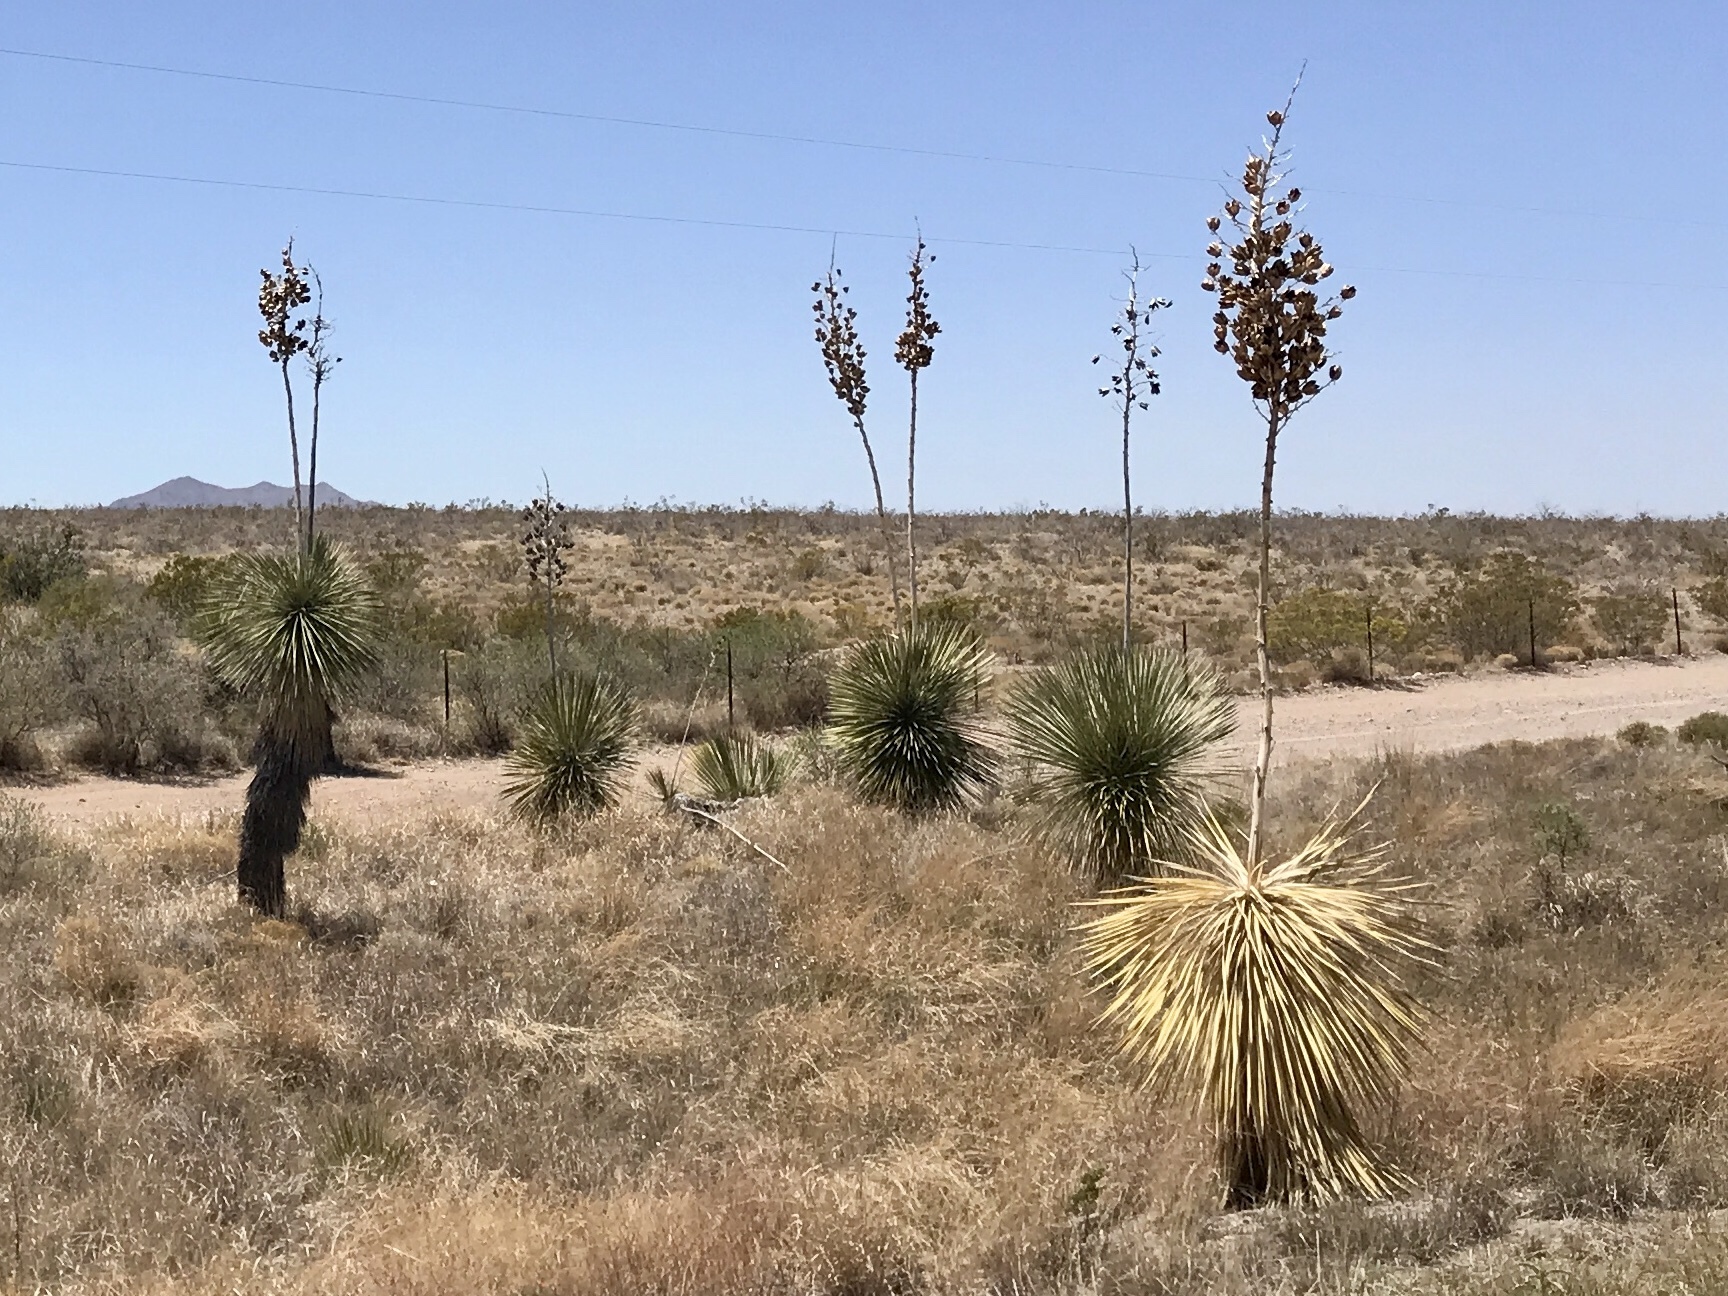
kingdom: Plantae
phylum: Tracheophyta
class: Liliopsida
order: Asparagales
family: Asparagaceae
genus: Yucca
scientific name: Yucca elata
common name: Palmella
